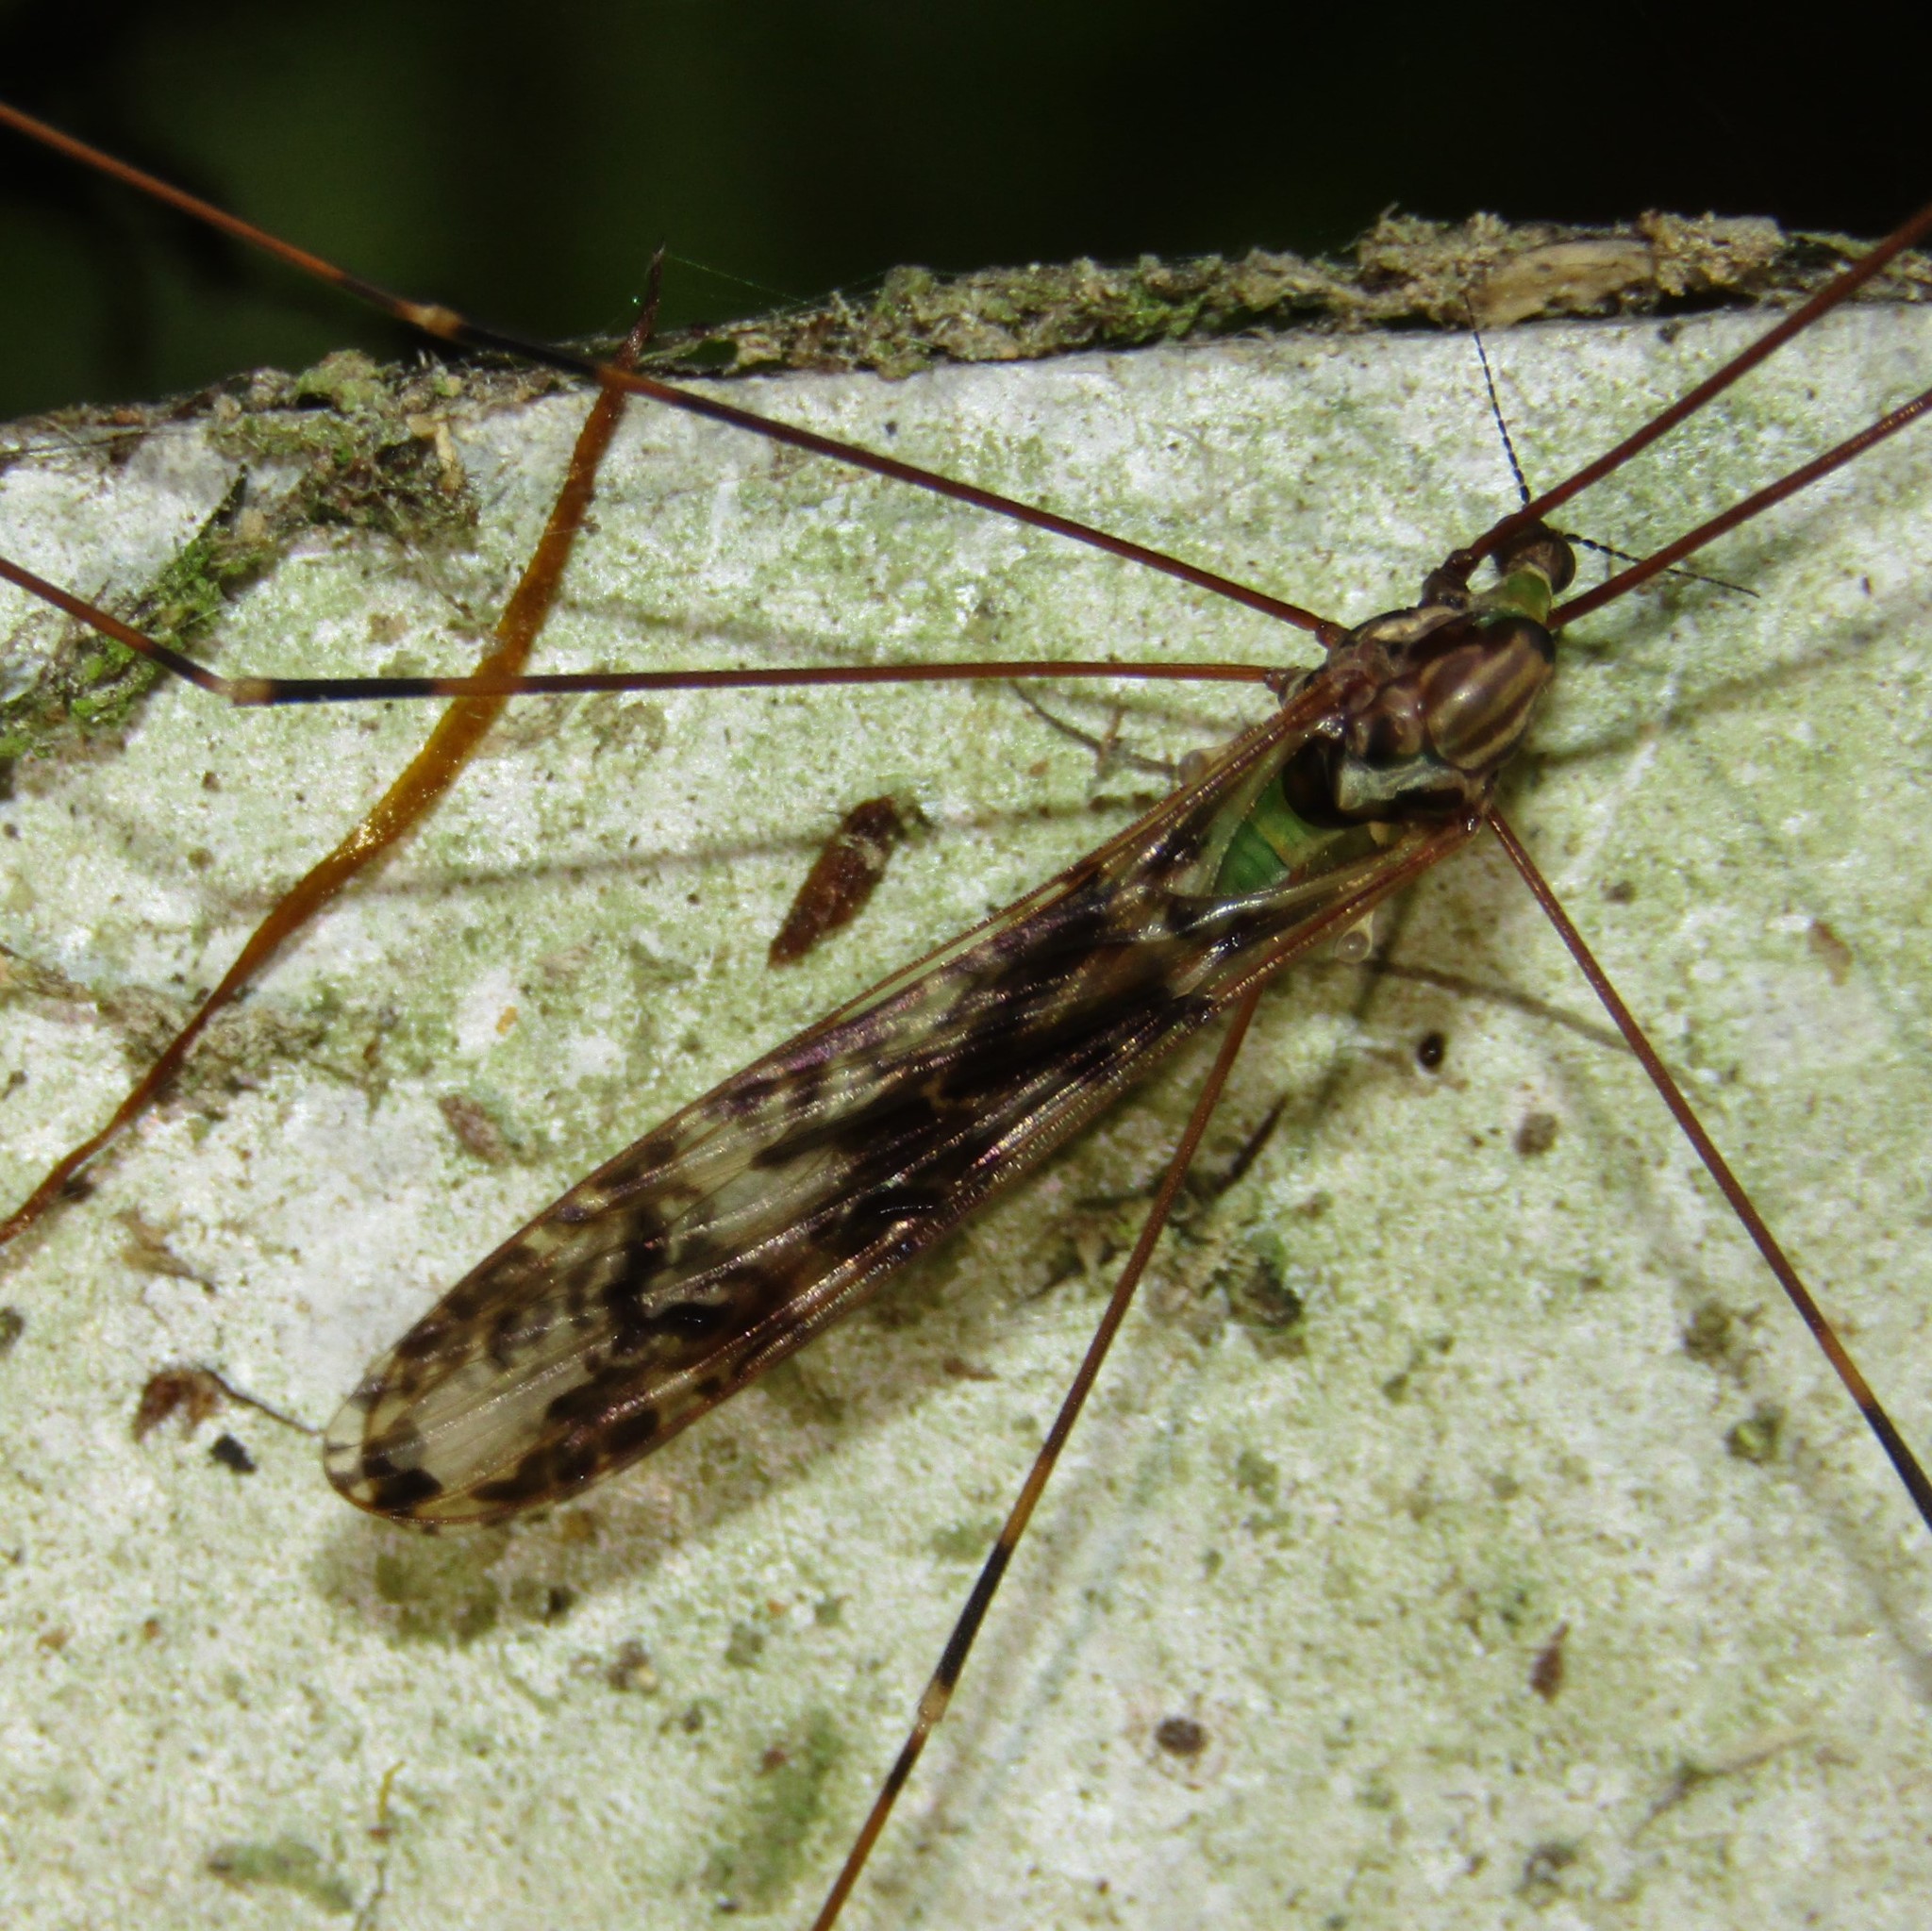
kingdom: Animalia
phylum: Arthropoda
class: Insecta
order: Diptera
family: Limoniidae
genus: Discobola
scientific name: Discobola dohrni
